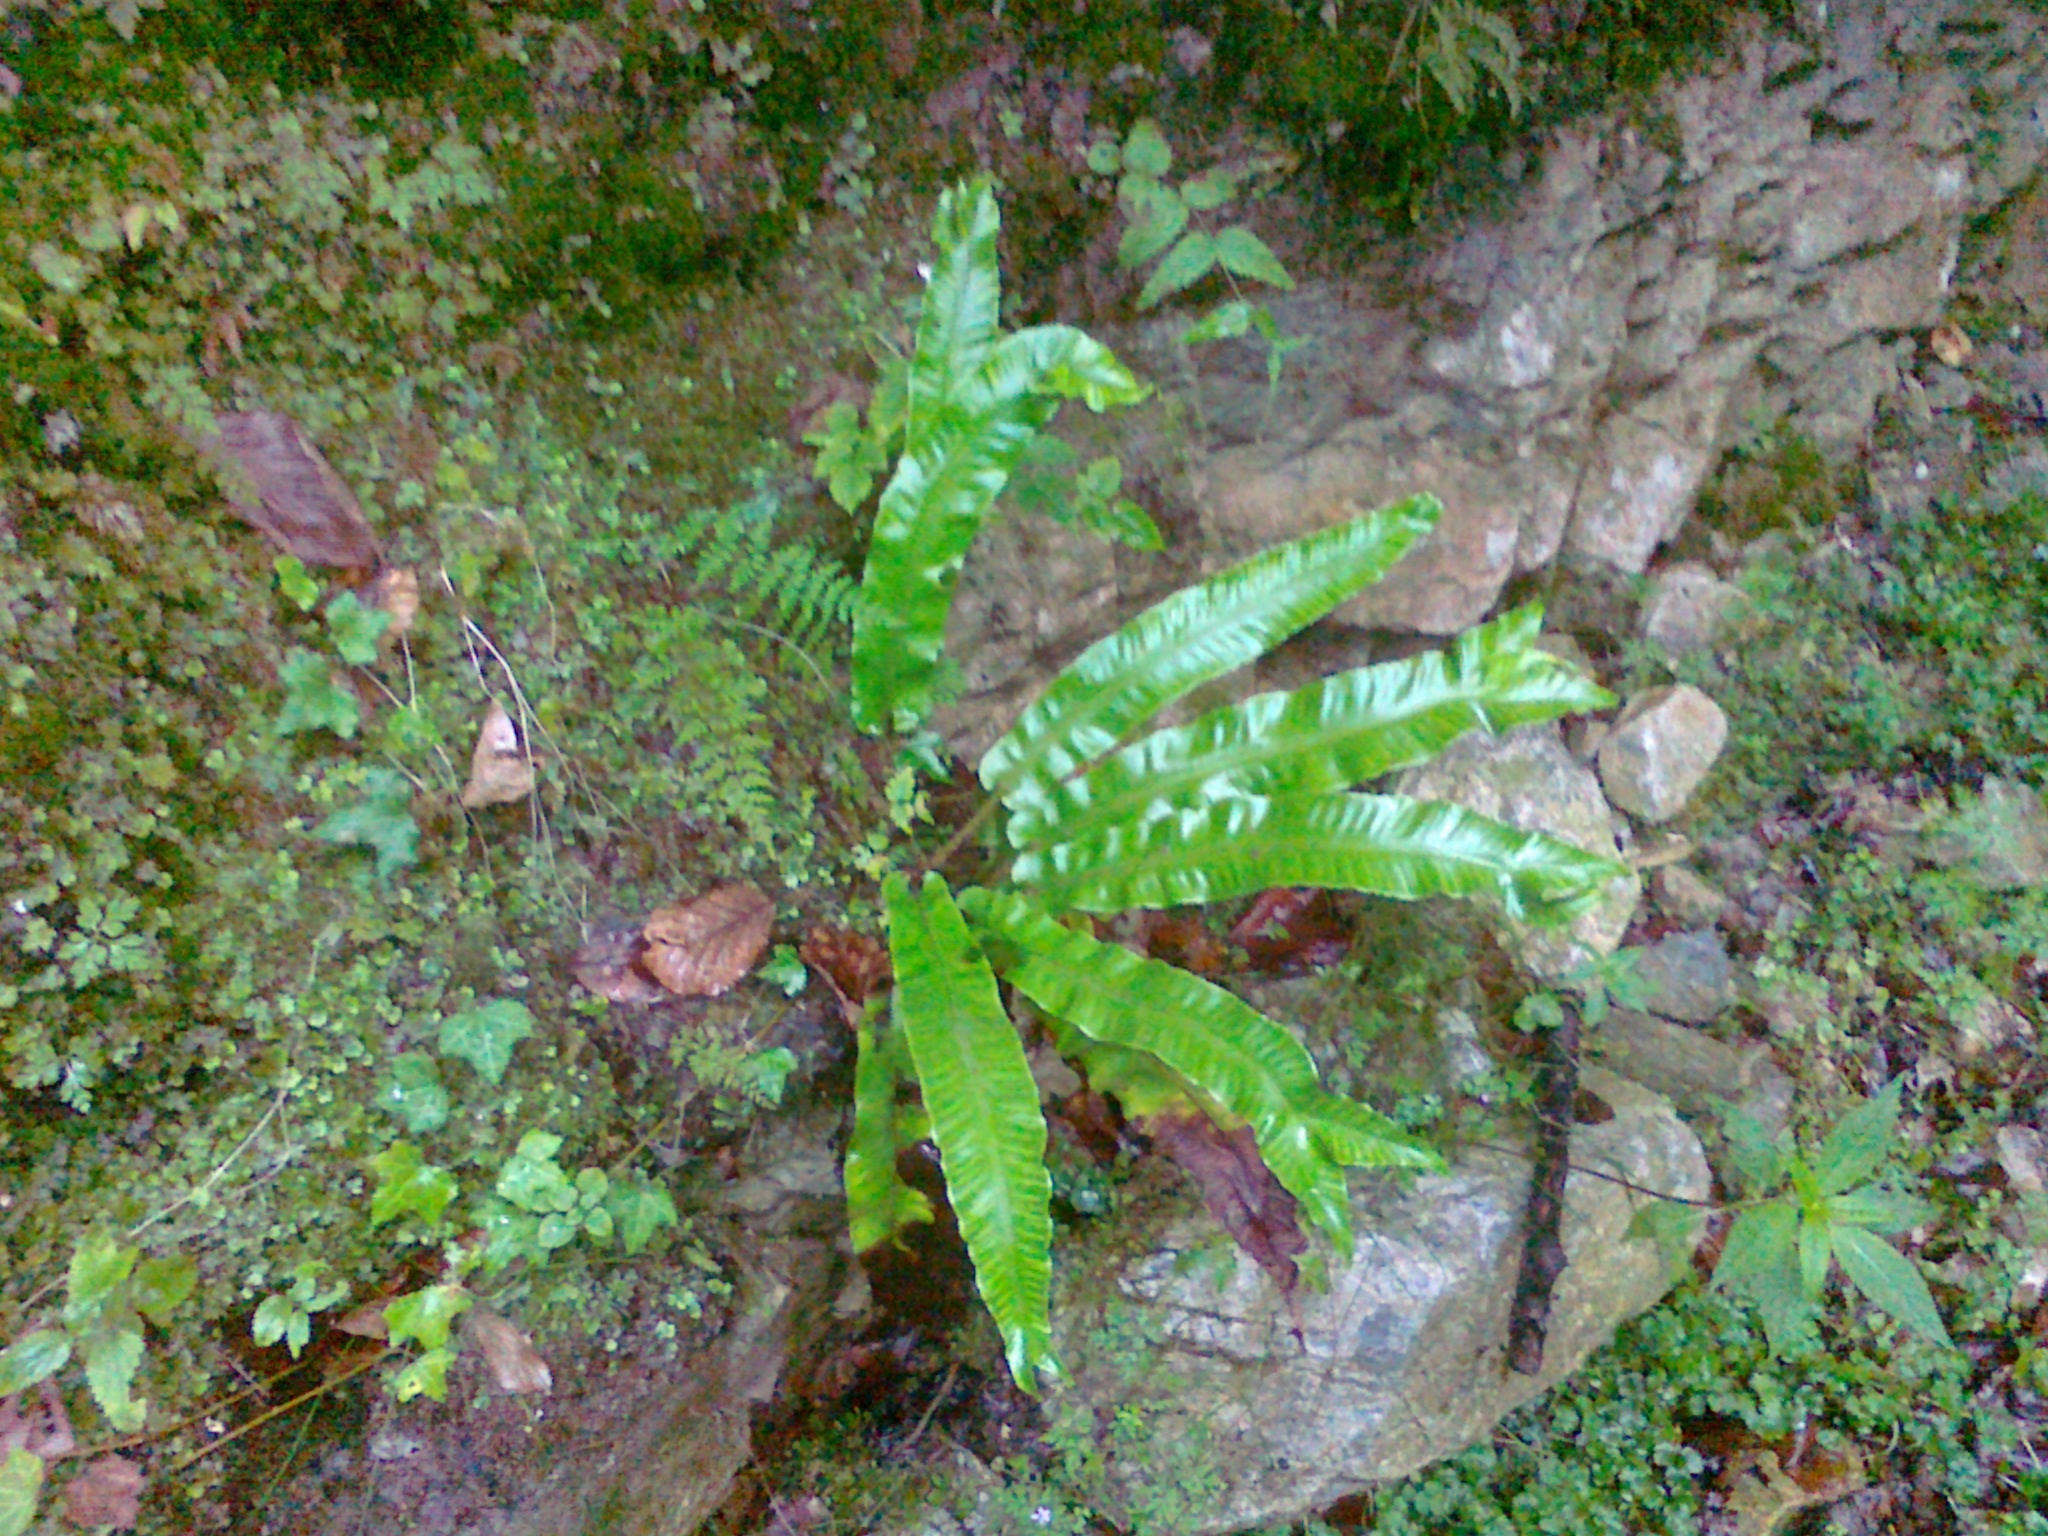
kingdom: Plantae
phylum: Tracheophyta
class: Polypodiopsida
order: Polypodiales
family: Aspleniaceae
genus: Asplenium
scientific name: Asplenium scolopendrium
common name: Hart's-tongue fern
